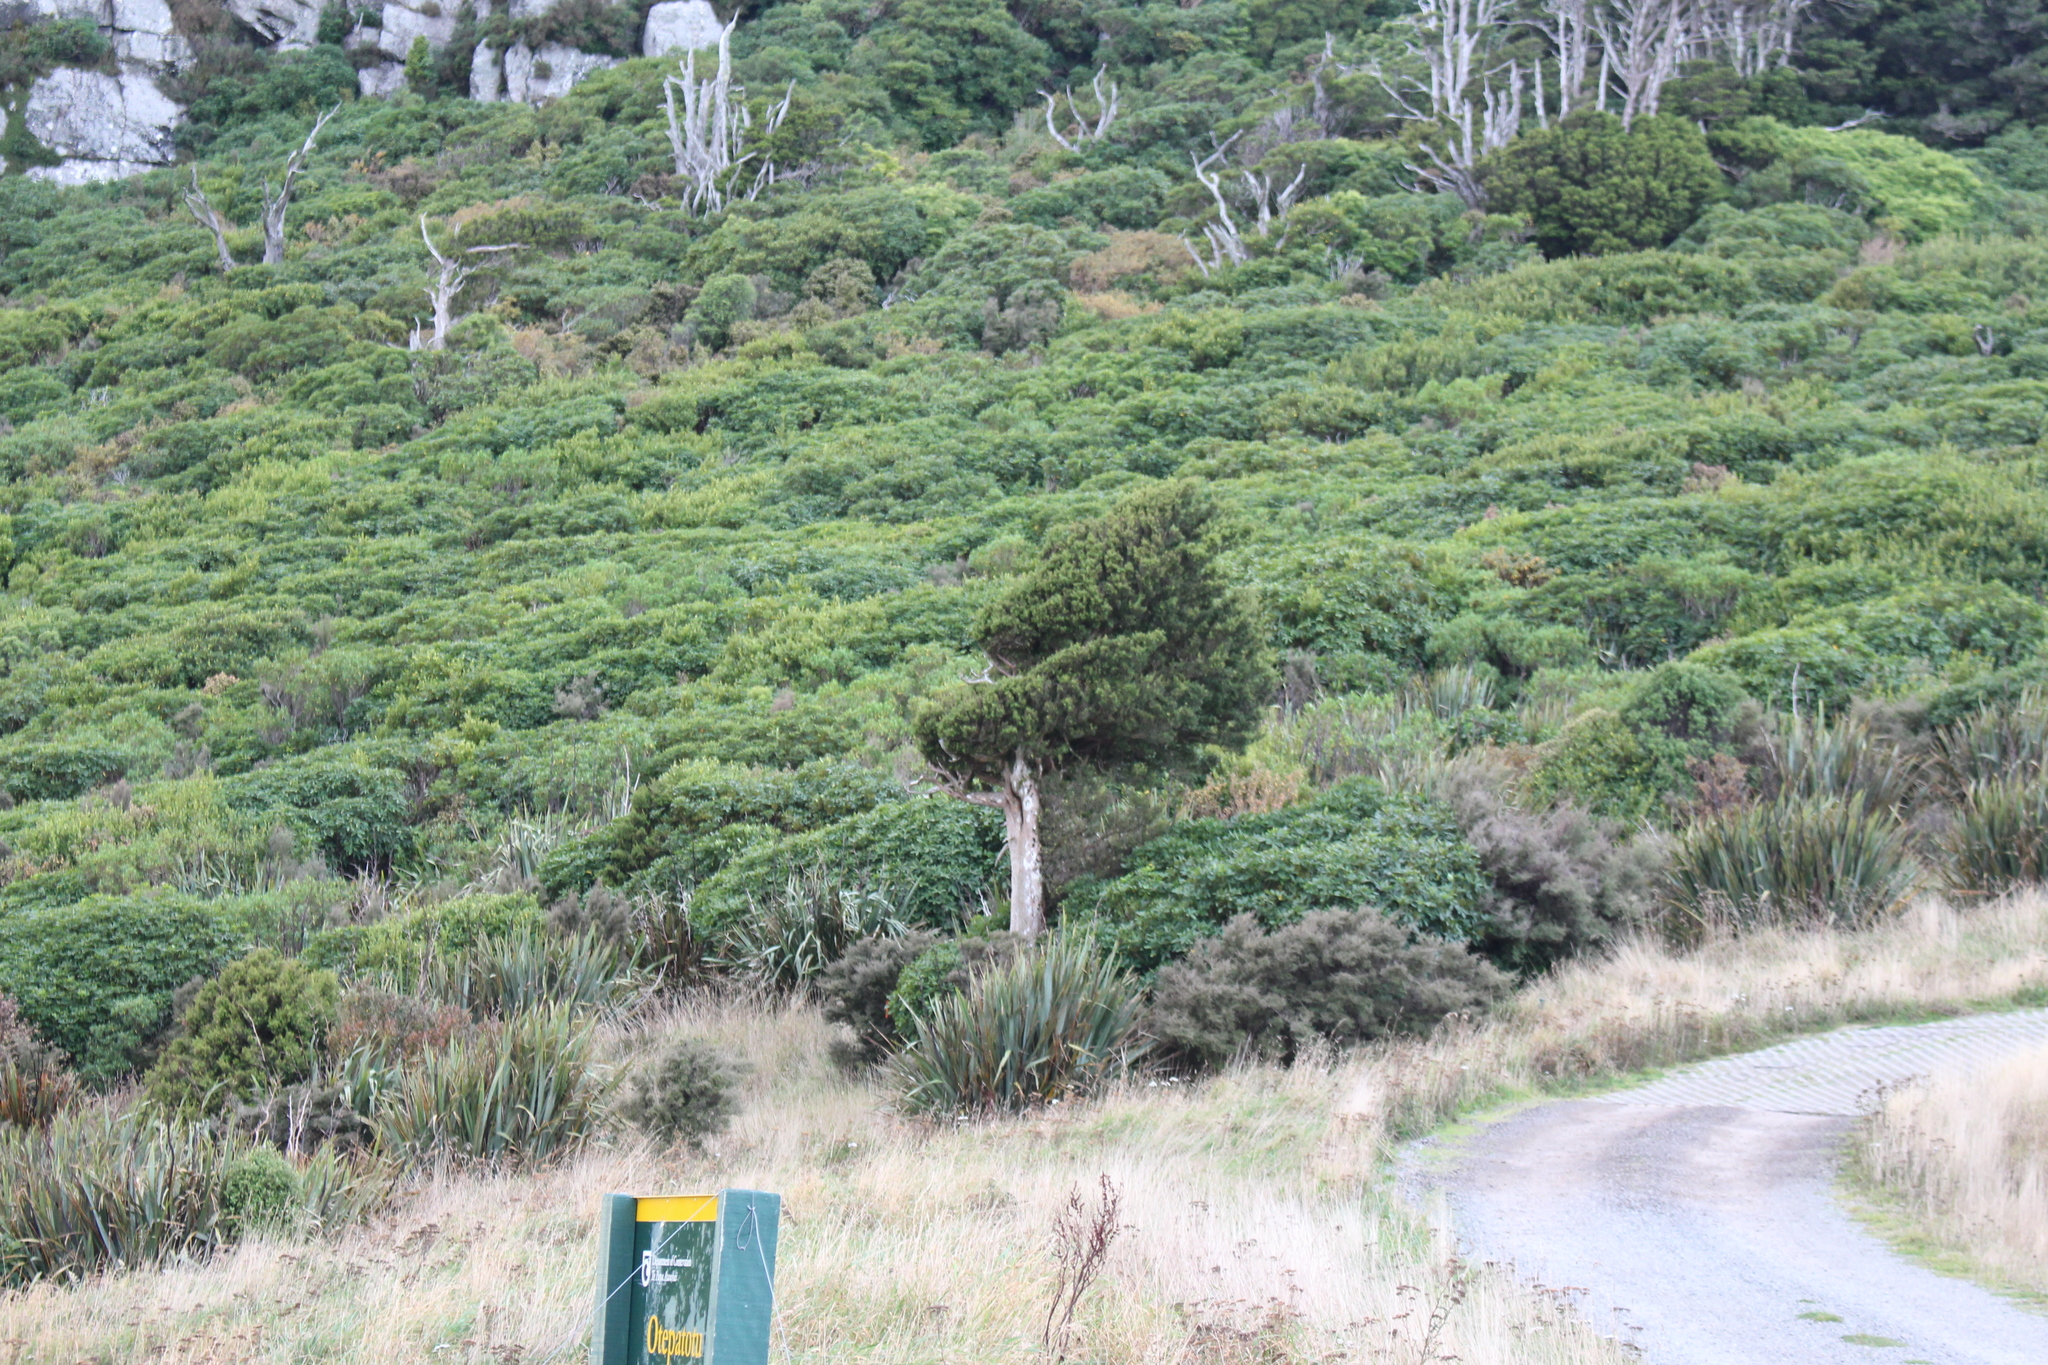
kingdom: Plantae
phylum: Tracheophyta
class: Pinopsida
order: Pinales
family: Podocarpaceae
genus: Podocarpus
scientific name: Podocarpus laetus
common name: Hall's totara
